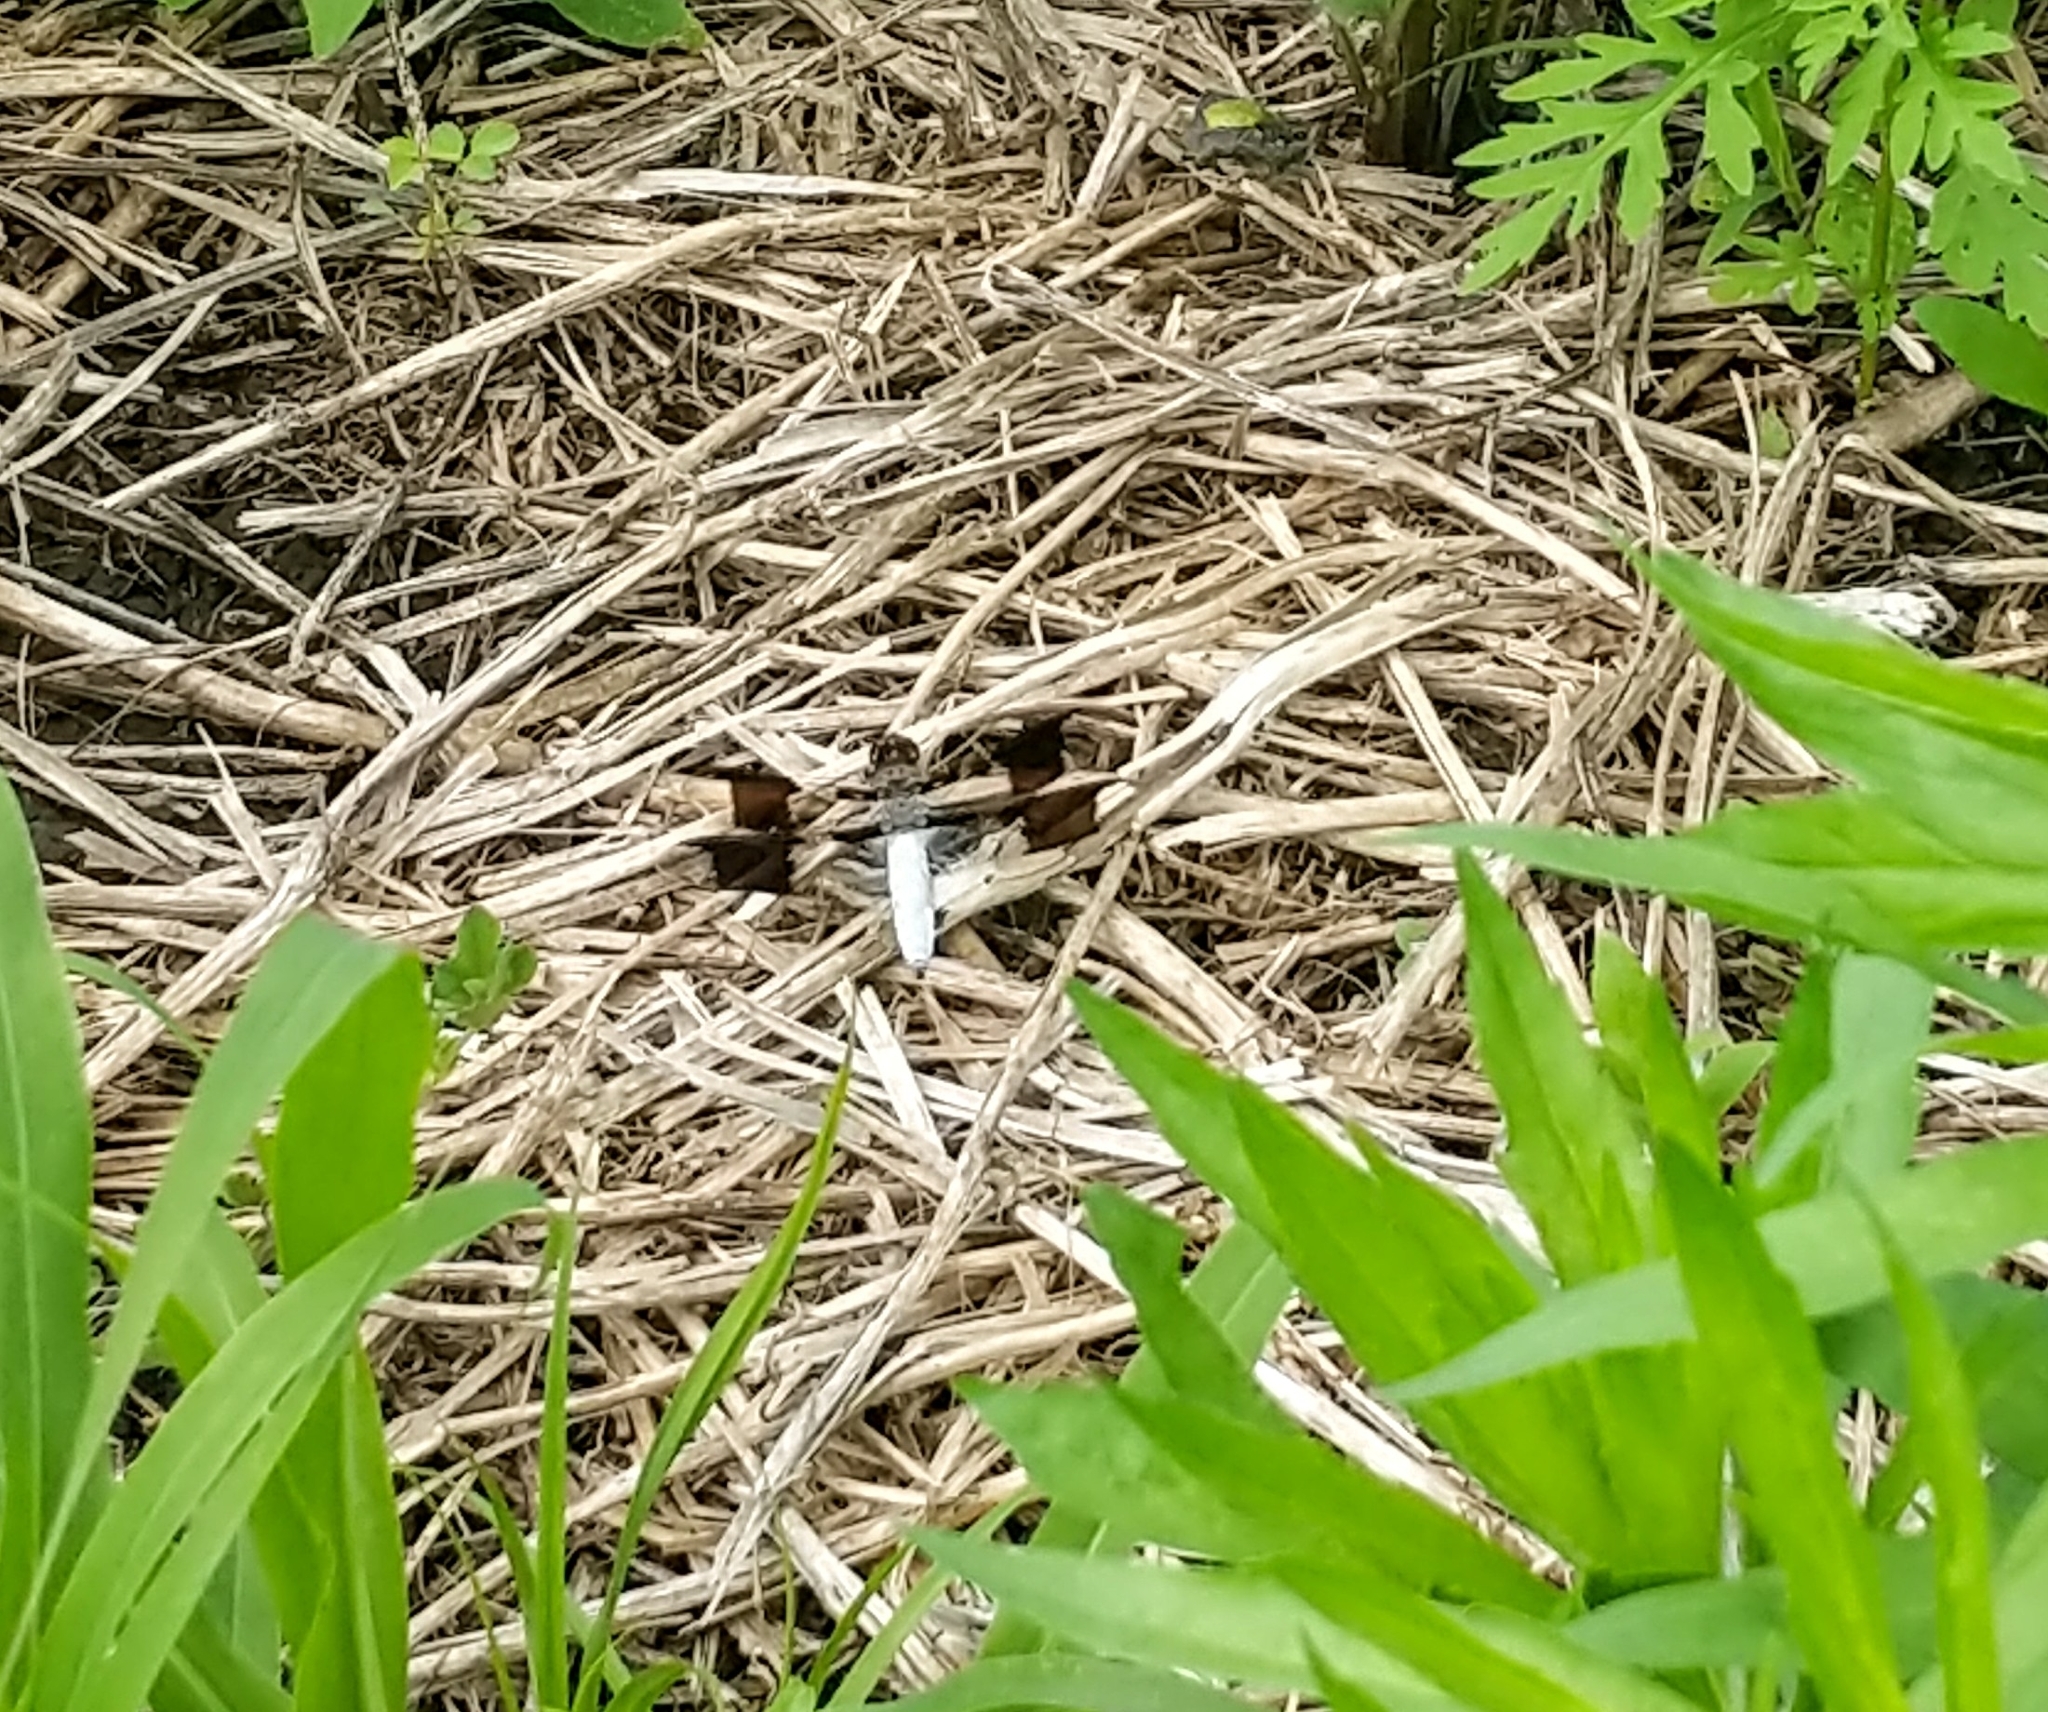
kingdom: Animalia
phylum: Arthropoda
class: Insecta
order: Odonata
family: Libellulidae
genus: Plathemis
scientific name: Plathemis lydia
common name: Common whitetail
